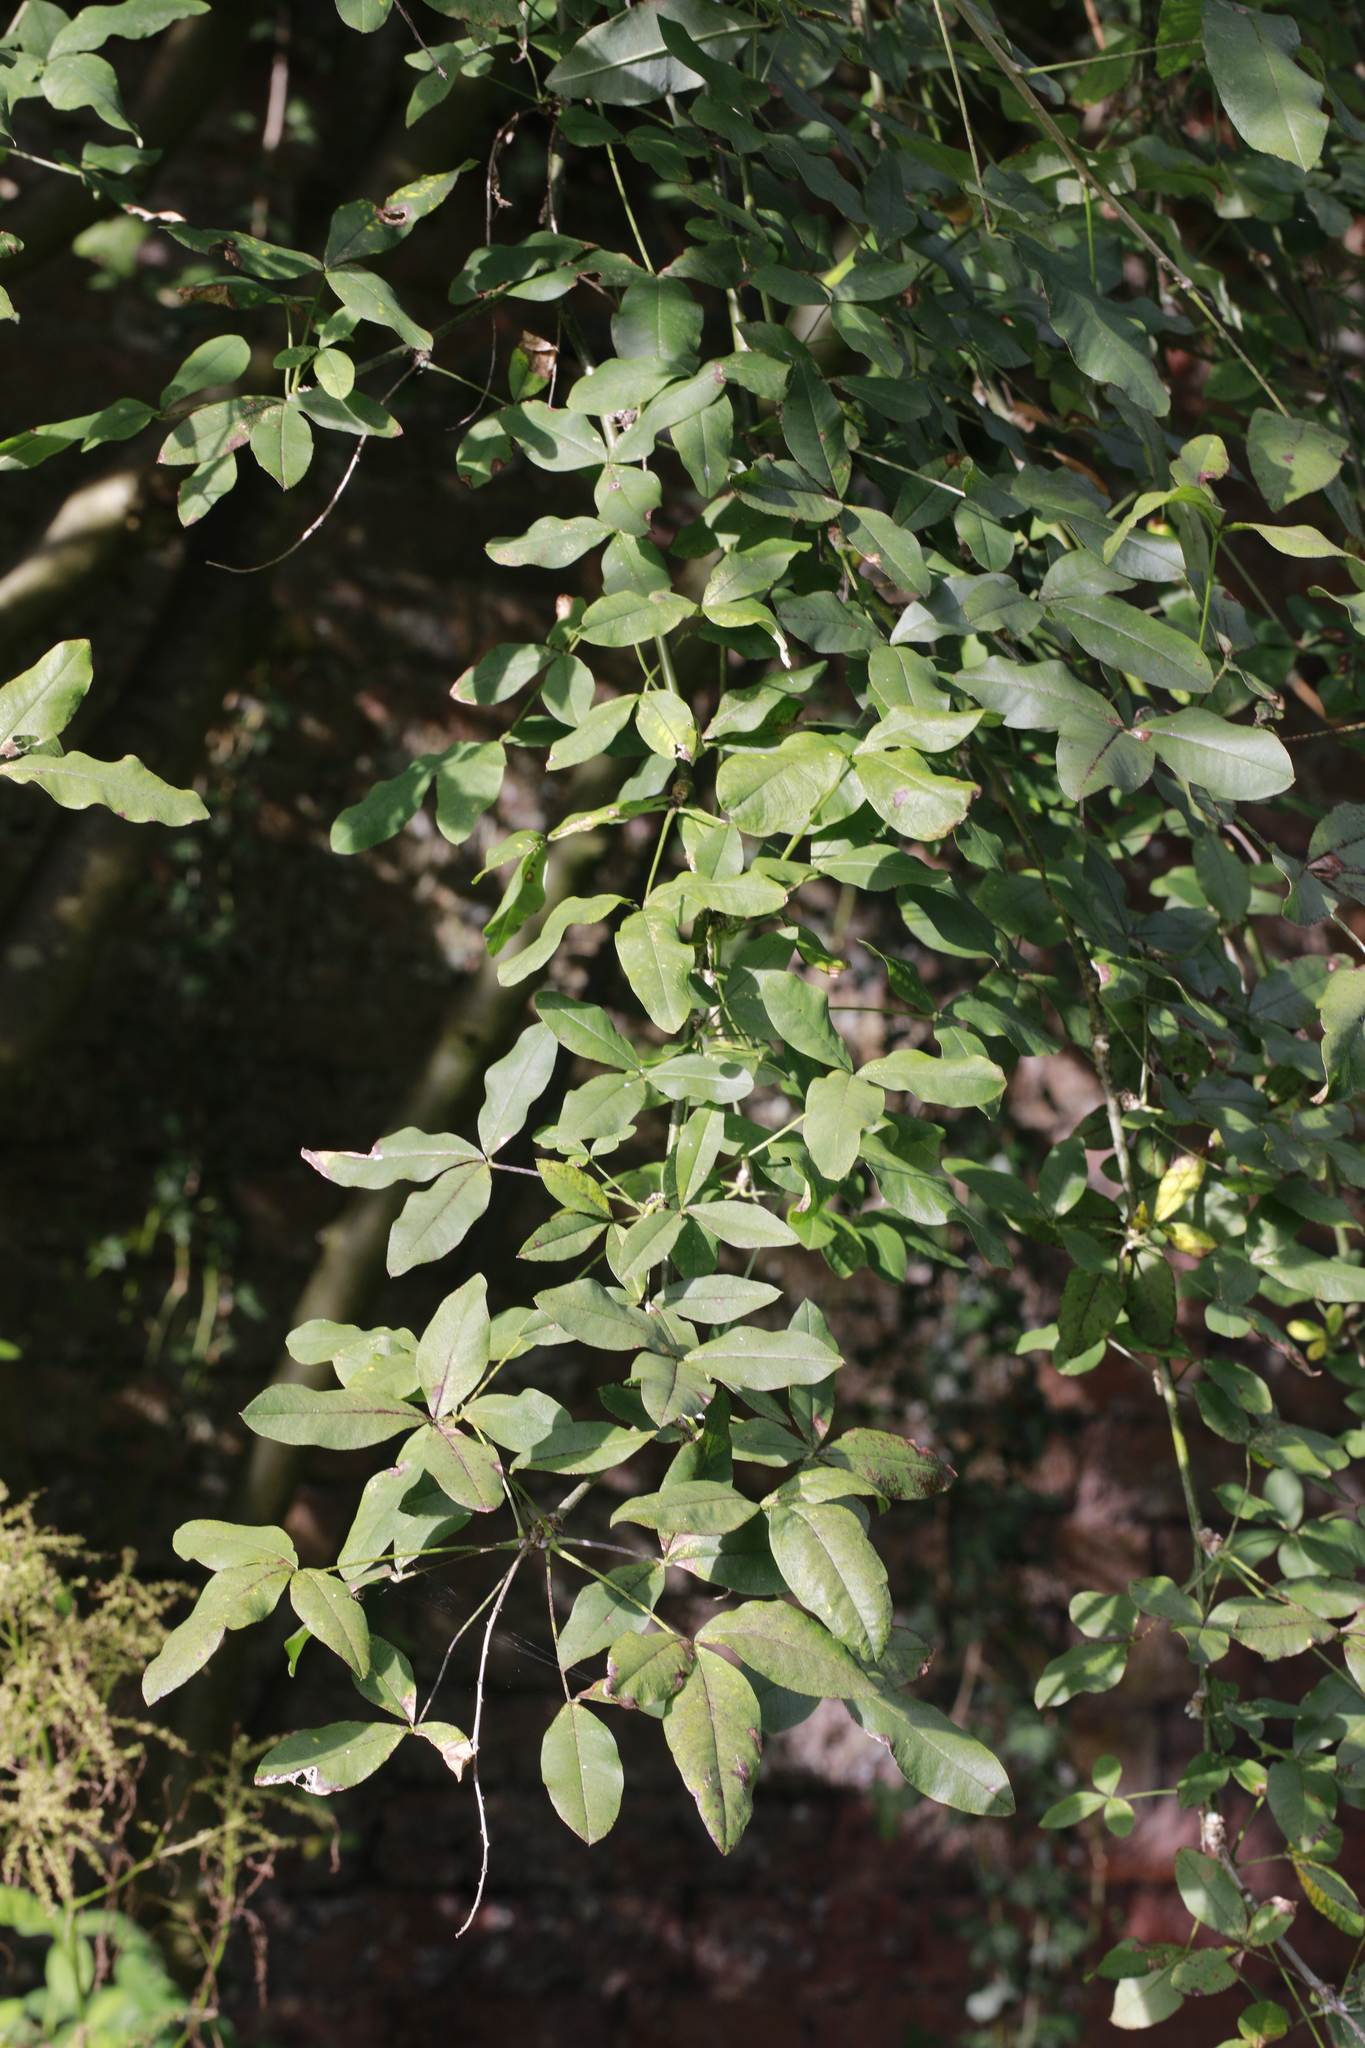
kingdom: Plantae
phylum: Tracheophyta
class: Magnoliopsida
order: Fabales
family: Fabaceae
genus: Laburnum
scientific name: Laburnum anagyroides
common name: Laburnum
